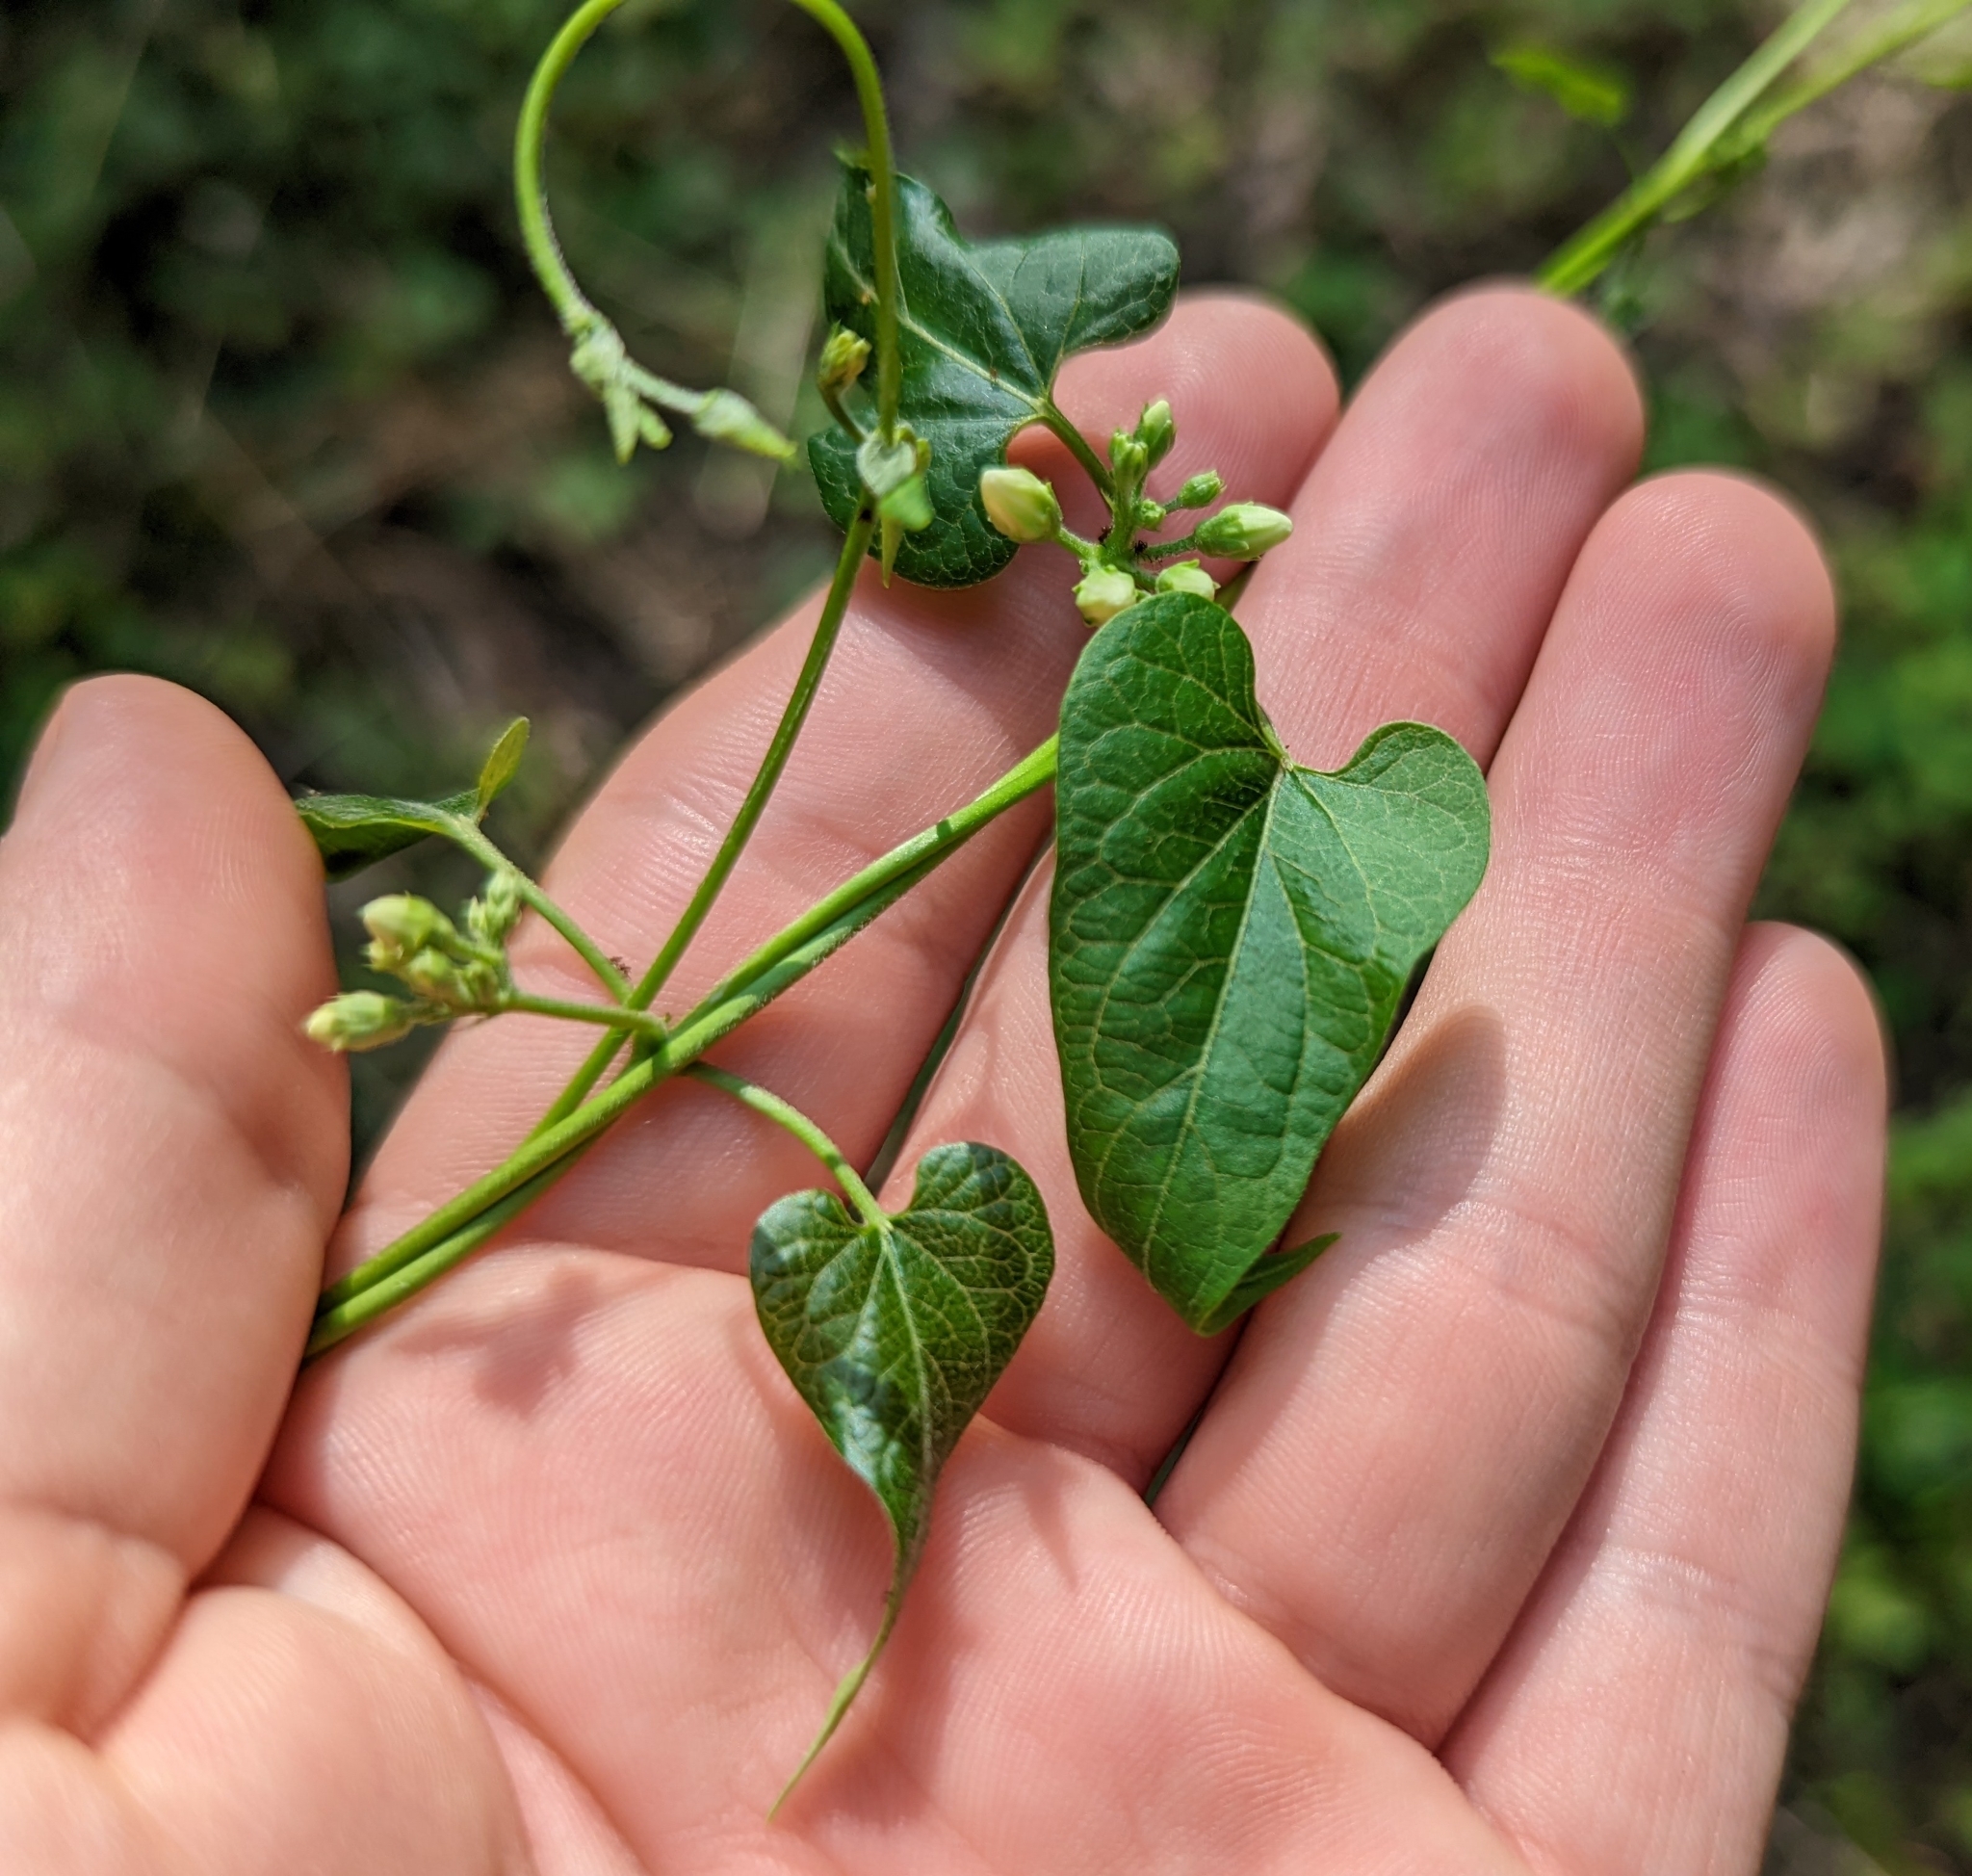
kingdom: Plantae
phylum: Tracheophyta
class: Magnoliopsida
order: Gentianales
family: Apocynaceae
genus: Cynanchum
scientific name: Cynanchum laeve
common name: Sandvine
